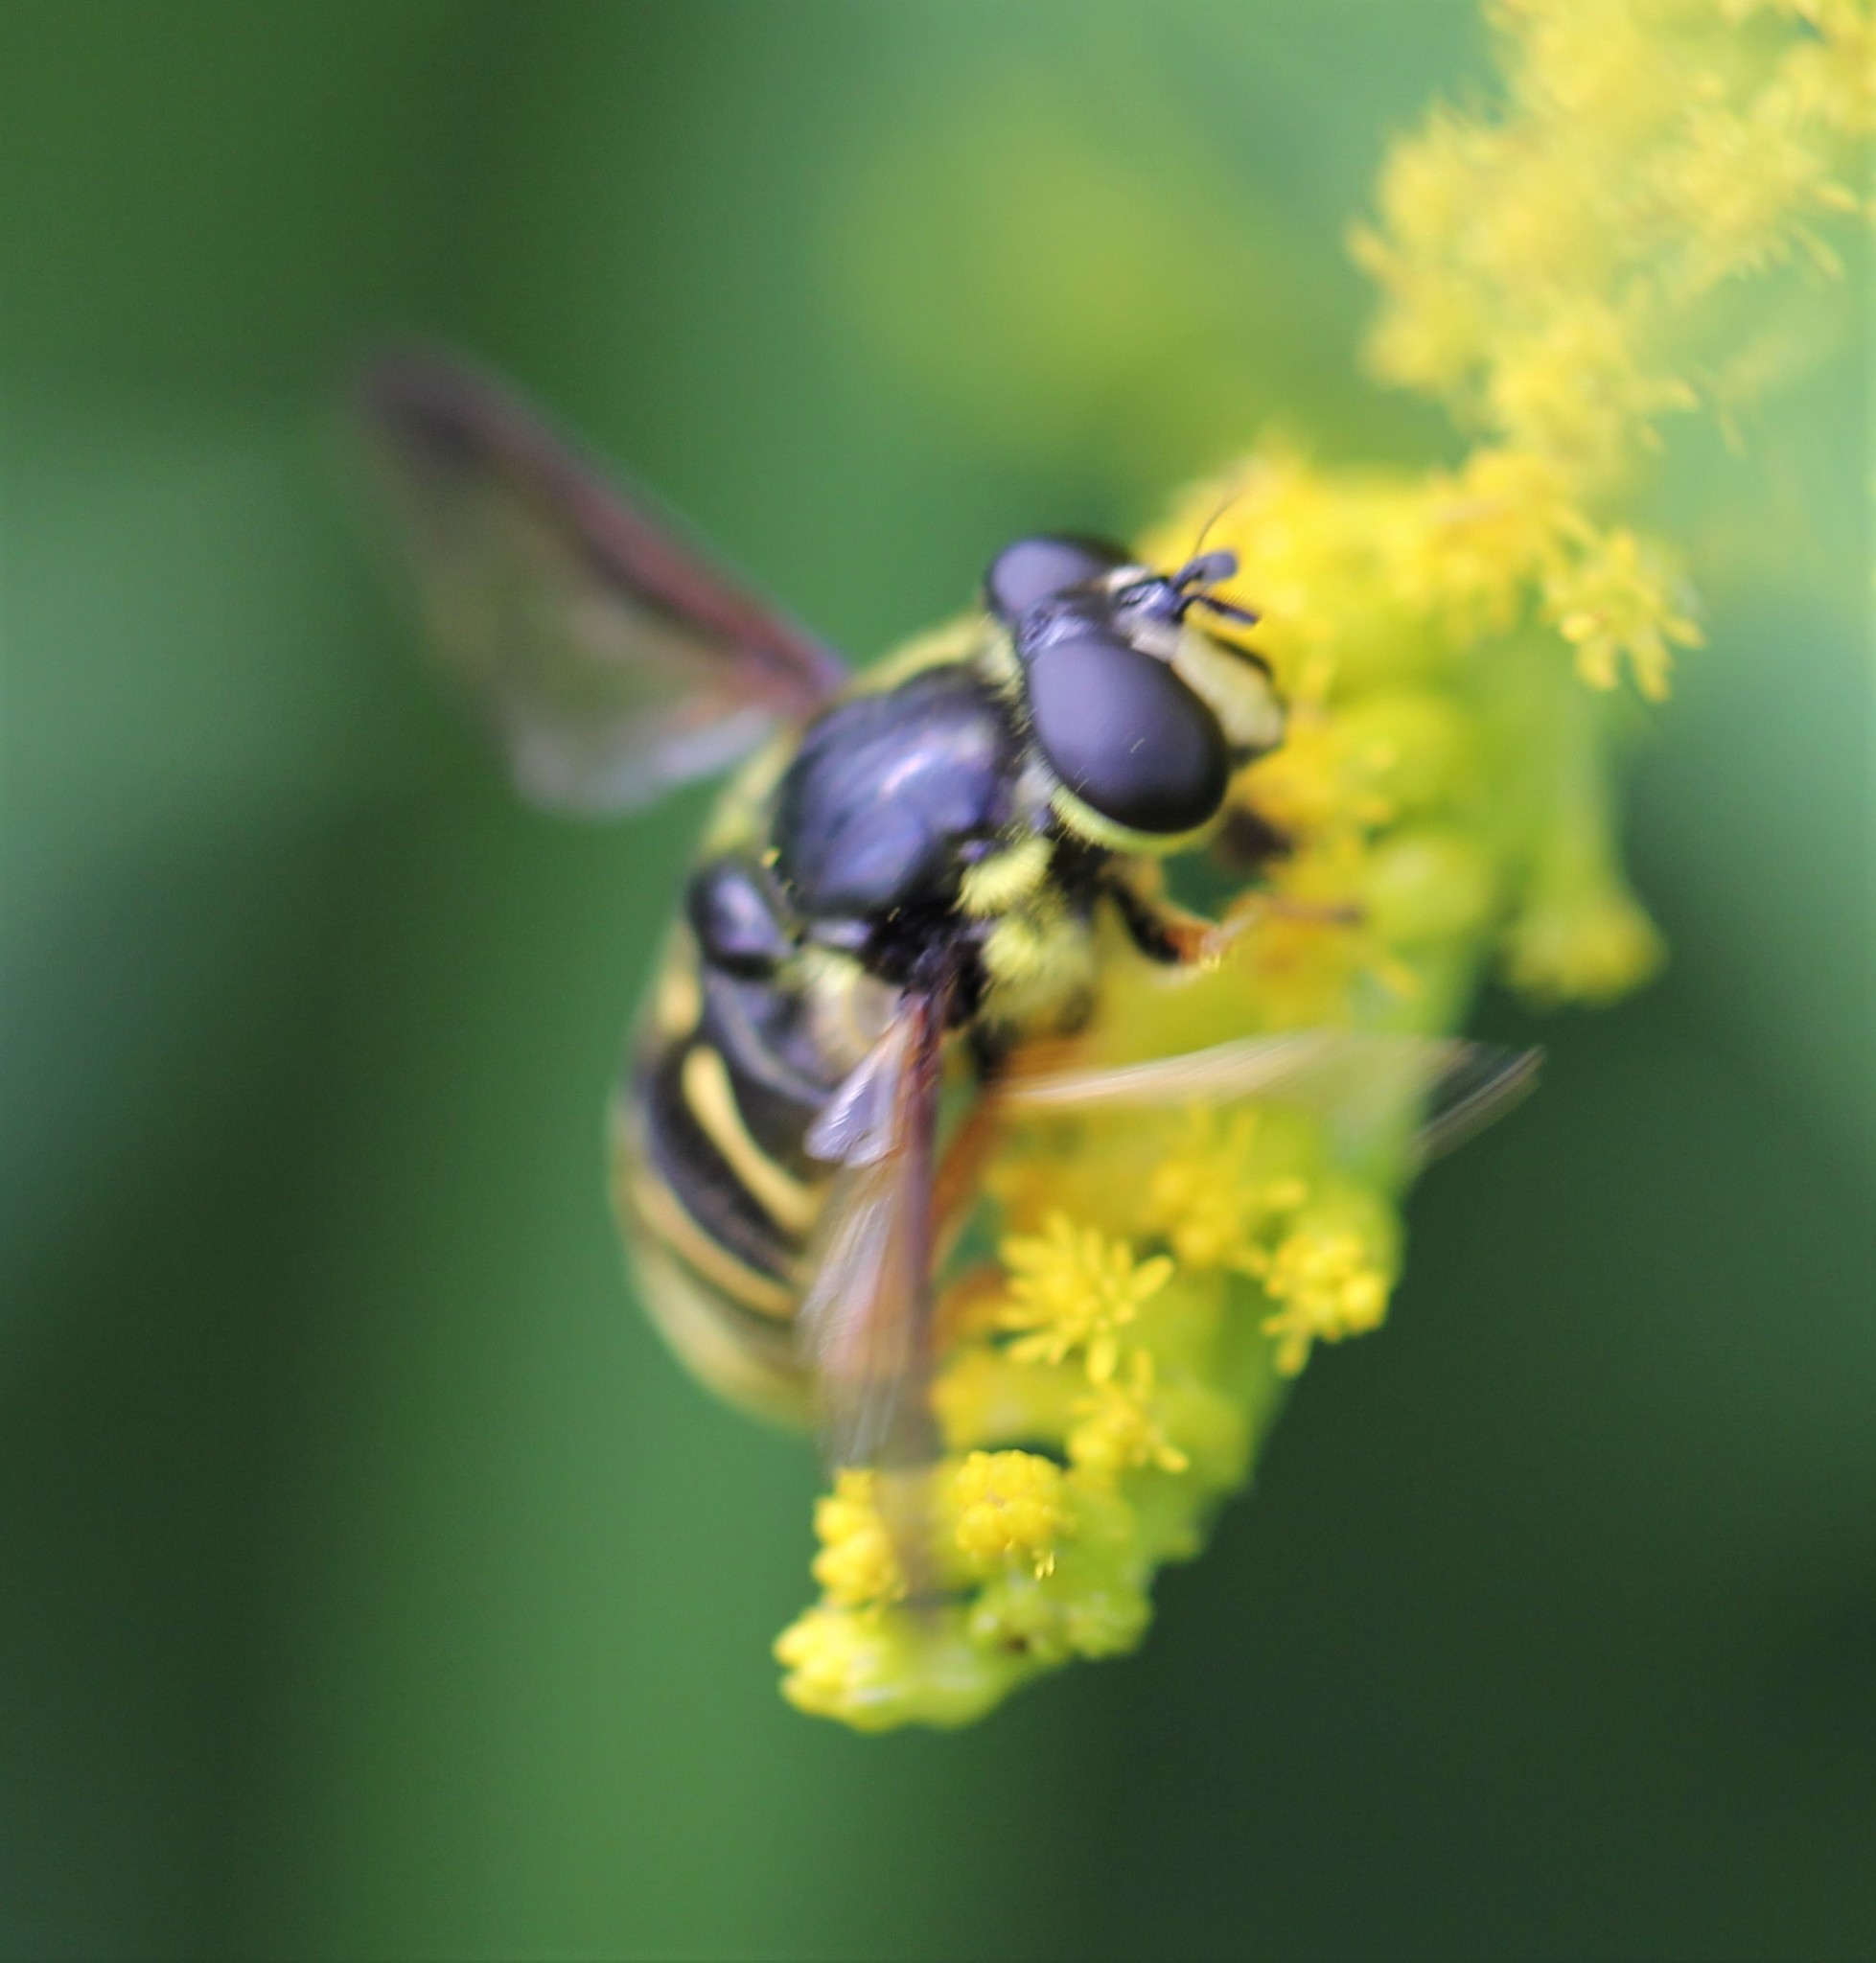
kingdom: Animalia
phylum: Arthropoda
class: Insecta
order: Diptera
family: Syrphidae
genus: Sericomyia
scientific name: Sericomyia chrysotoxoides
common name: Oblique-banded pond fly
